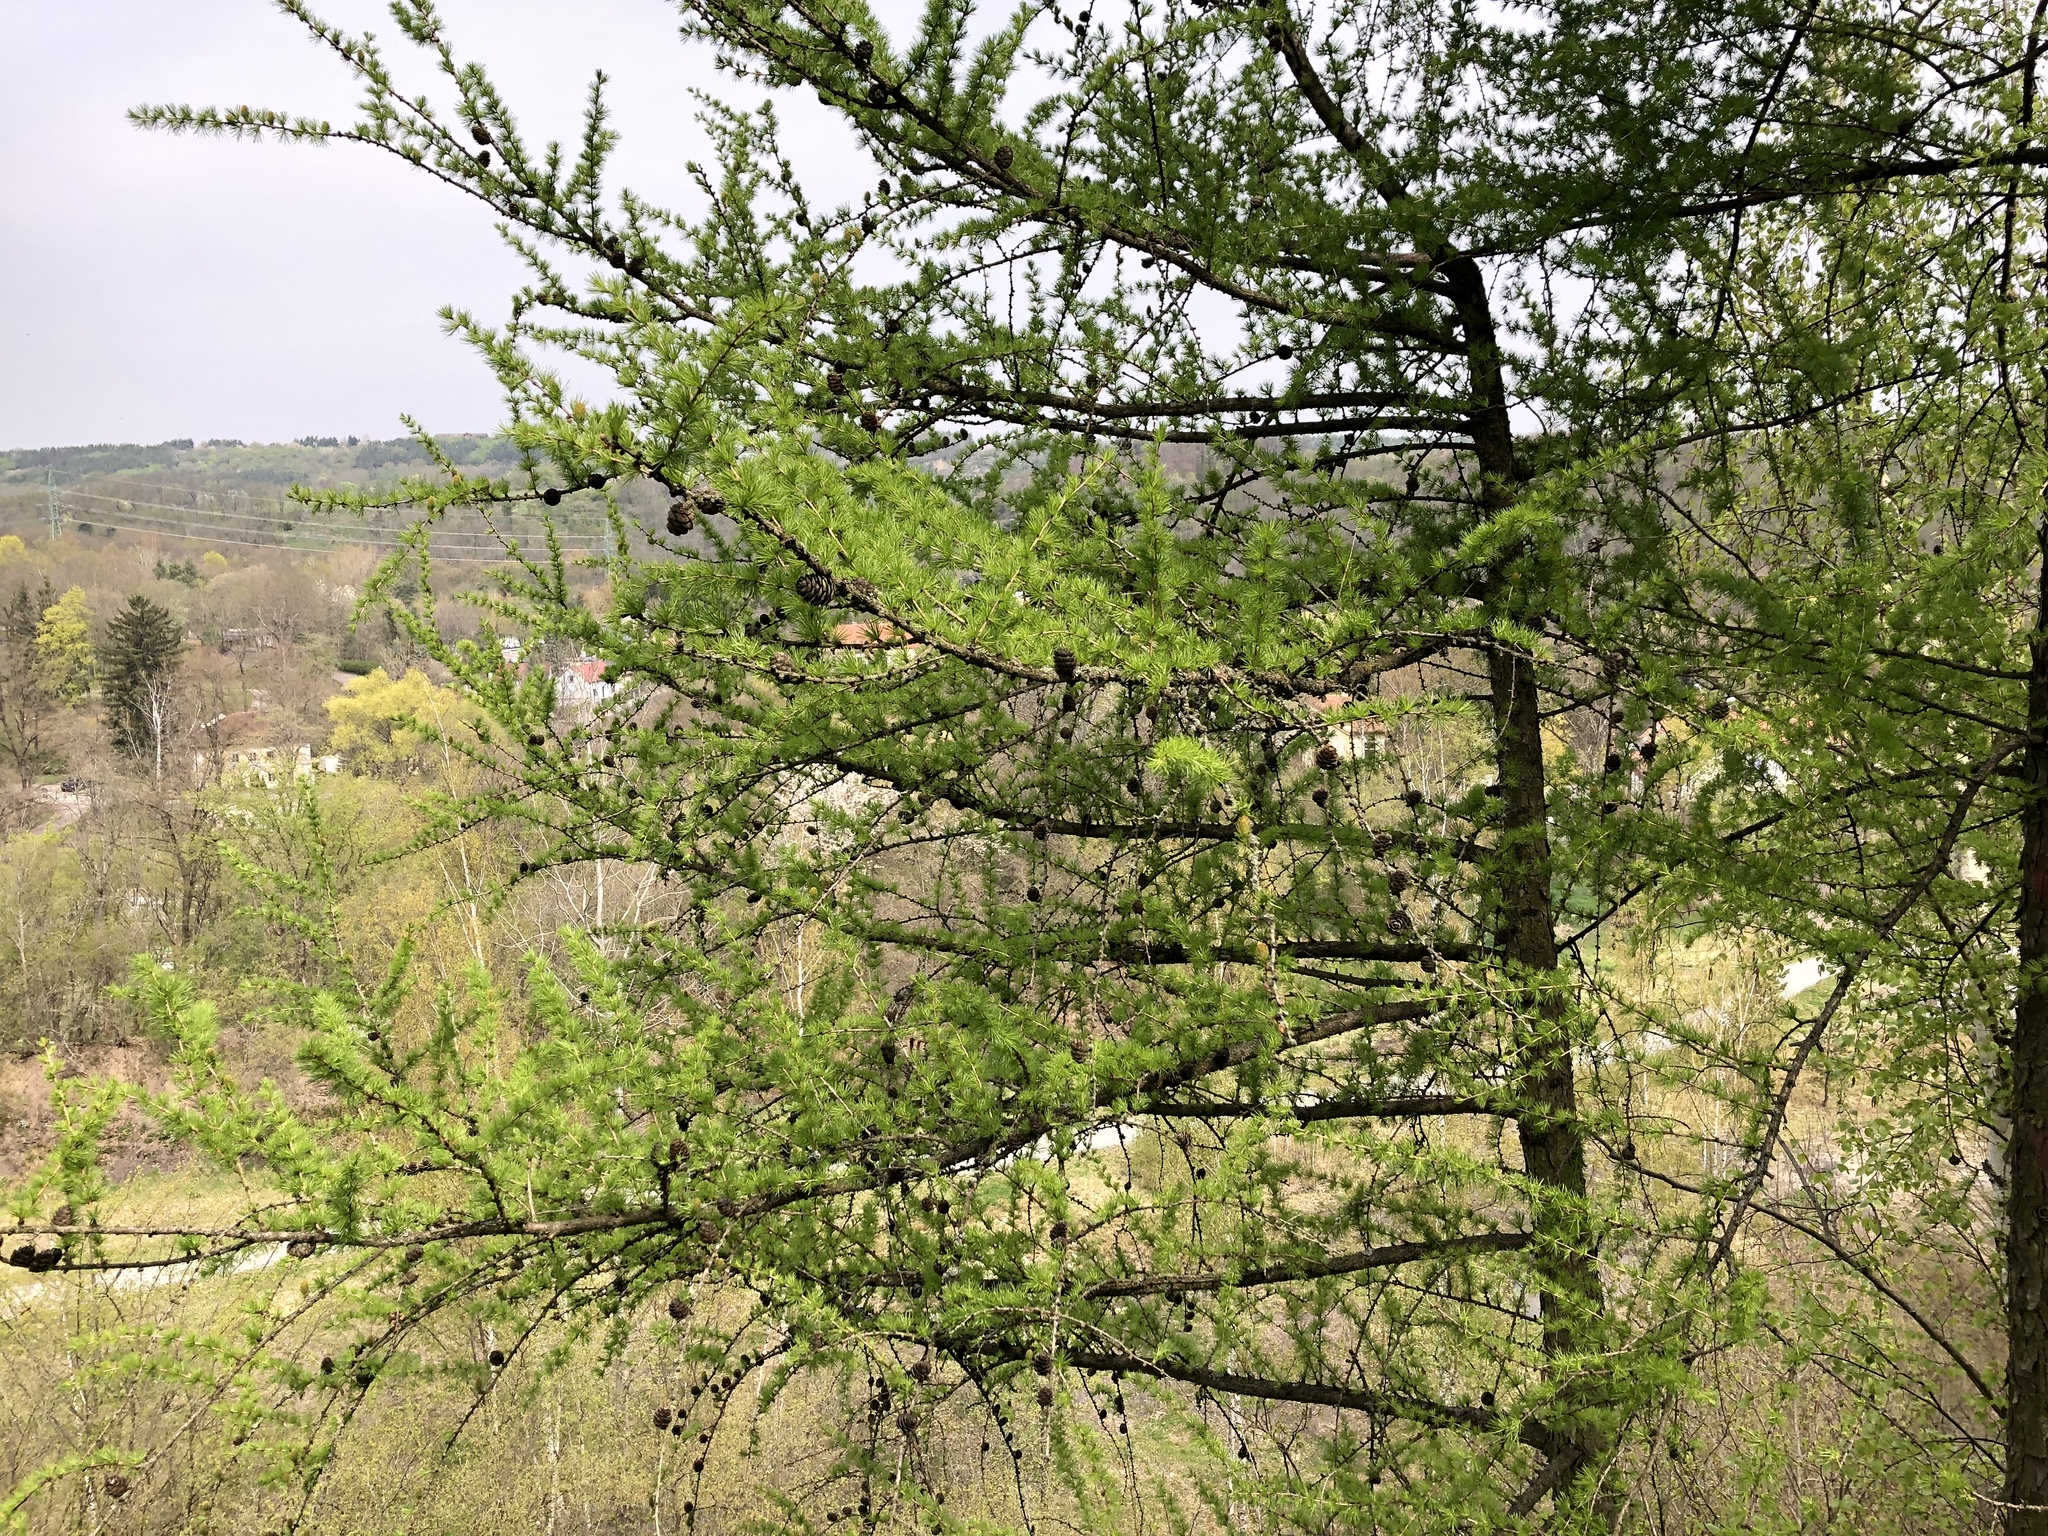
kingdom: Plantae
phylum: Tracheophyta
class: Pinopsida
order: Pinales
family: Pinaceae
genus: Larix
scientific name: Larix decidua
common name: European larch
